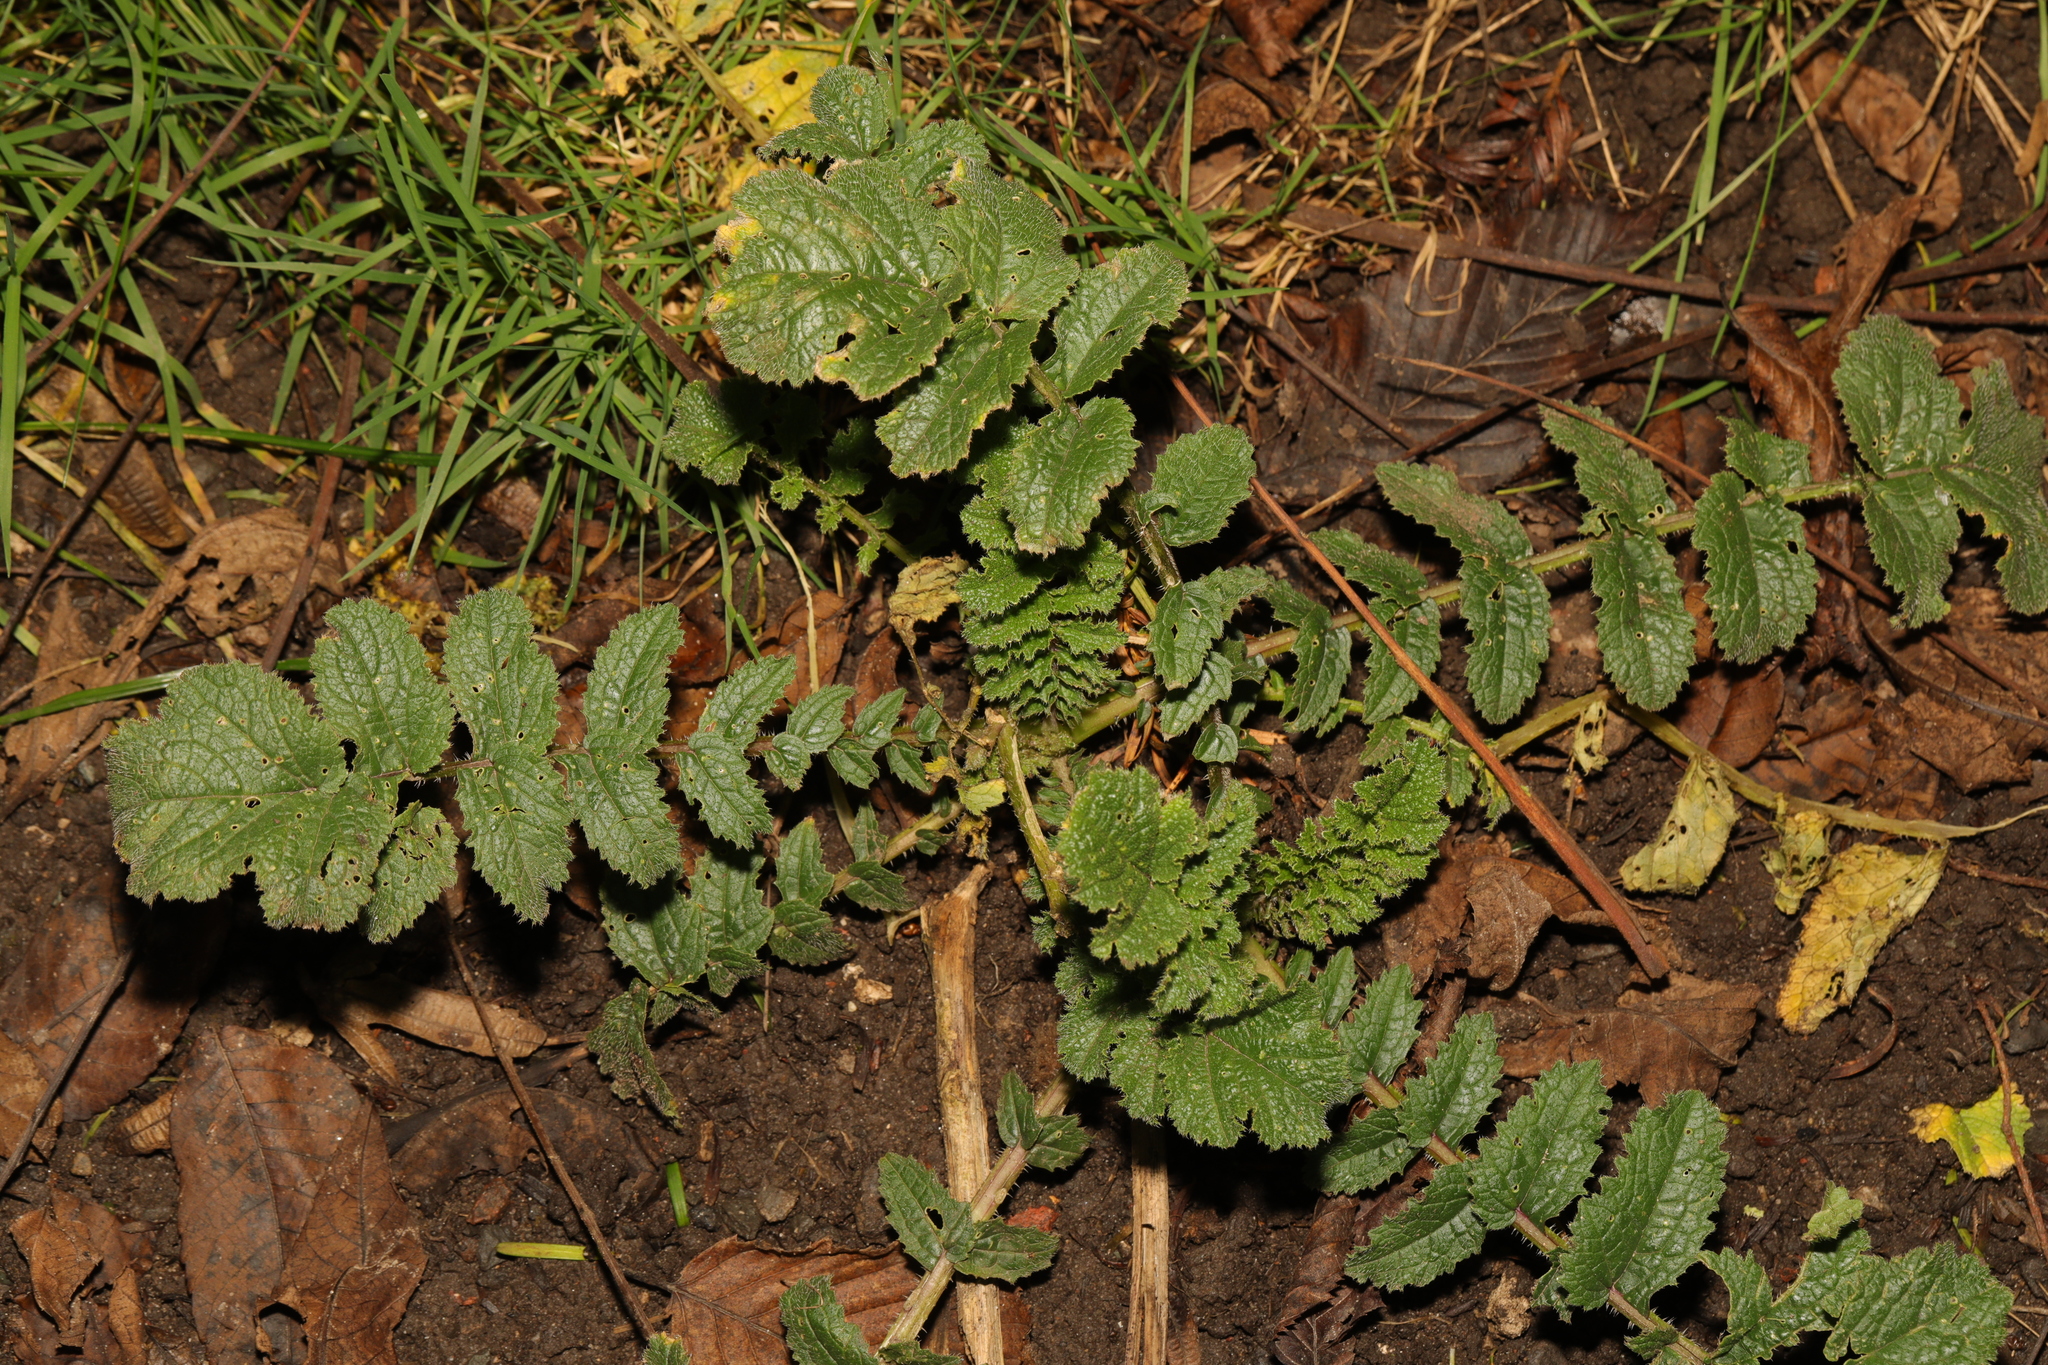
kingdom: Plantae
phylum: Tracheophyta
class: Magnoliopsida
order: Brassicales
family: Brassicaceae
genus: Raphanus
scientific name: Raphanus raphanistrum
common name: Wild radish
